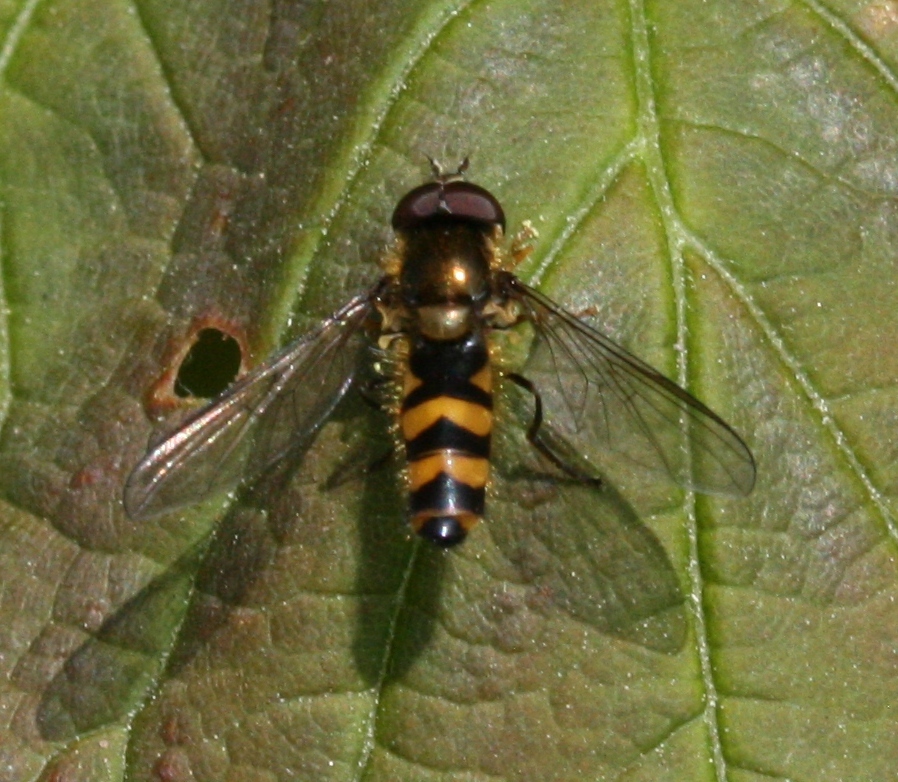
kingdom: Animalia
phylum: Arthropoda
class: Insecta
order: Diptera
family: Syrphidae
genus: Fagisyrphus
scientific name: Fagisyrphus cincta
